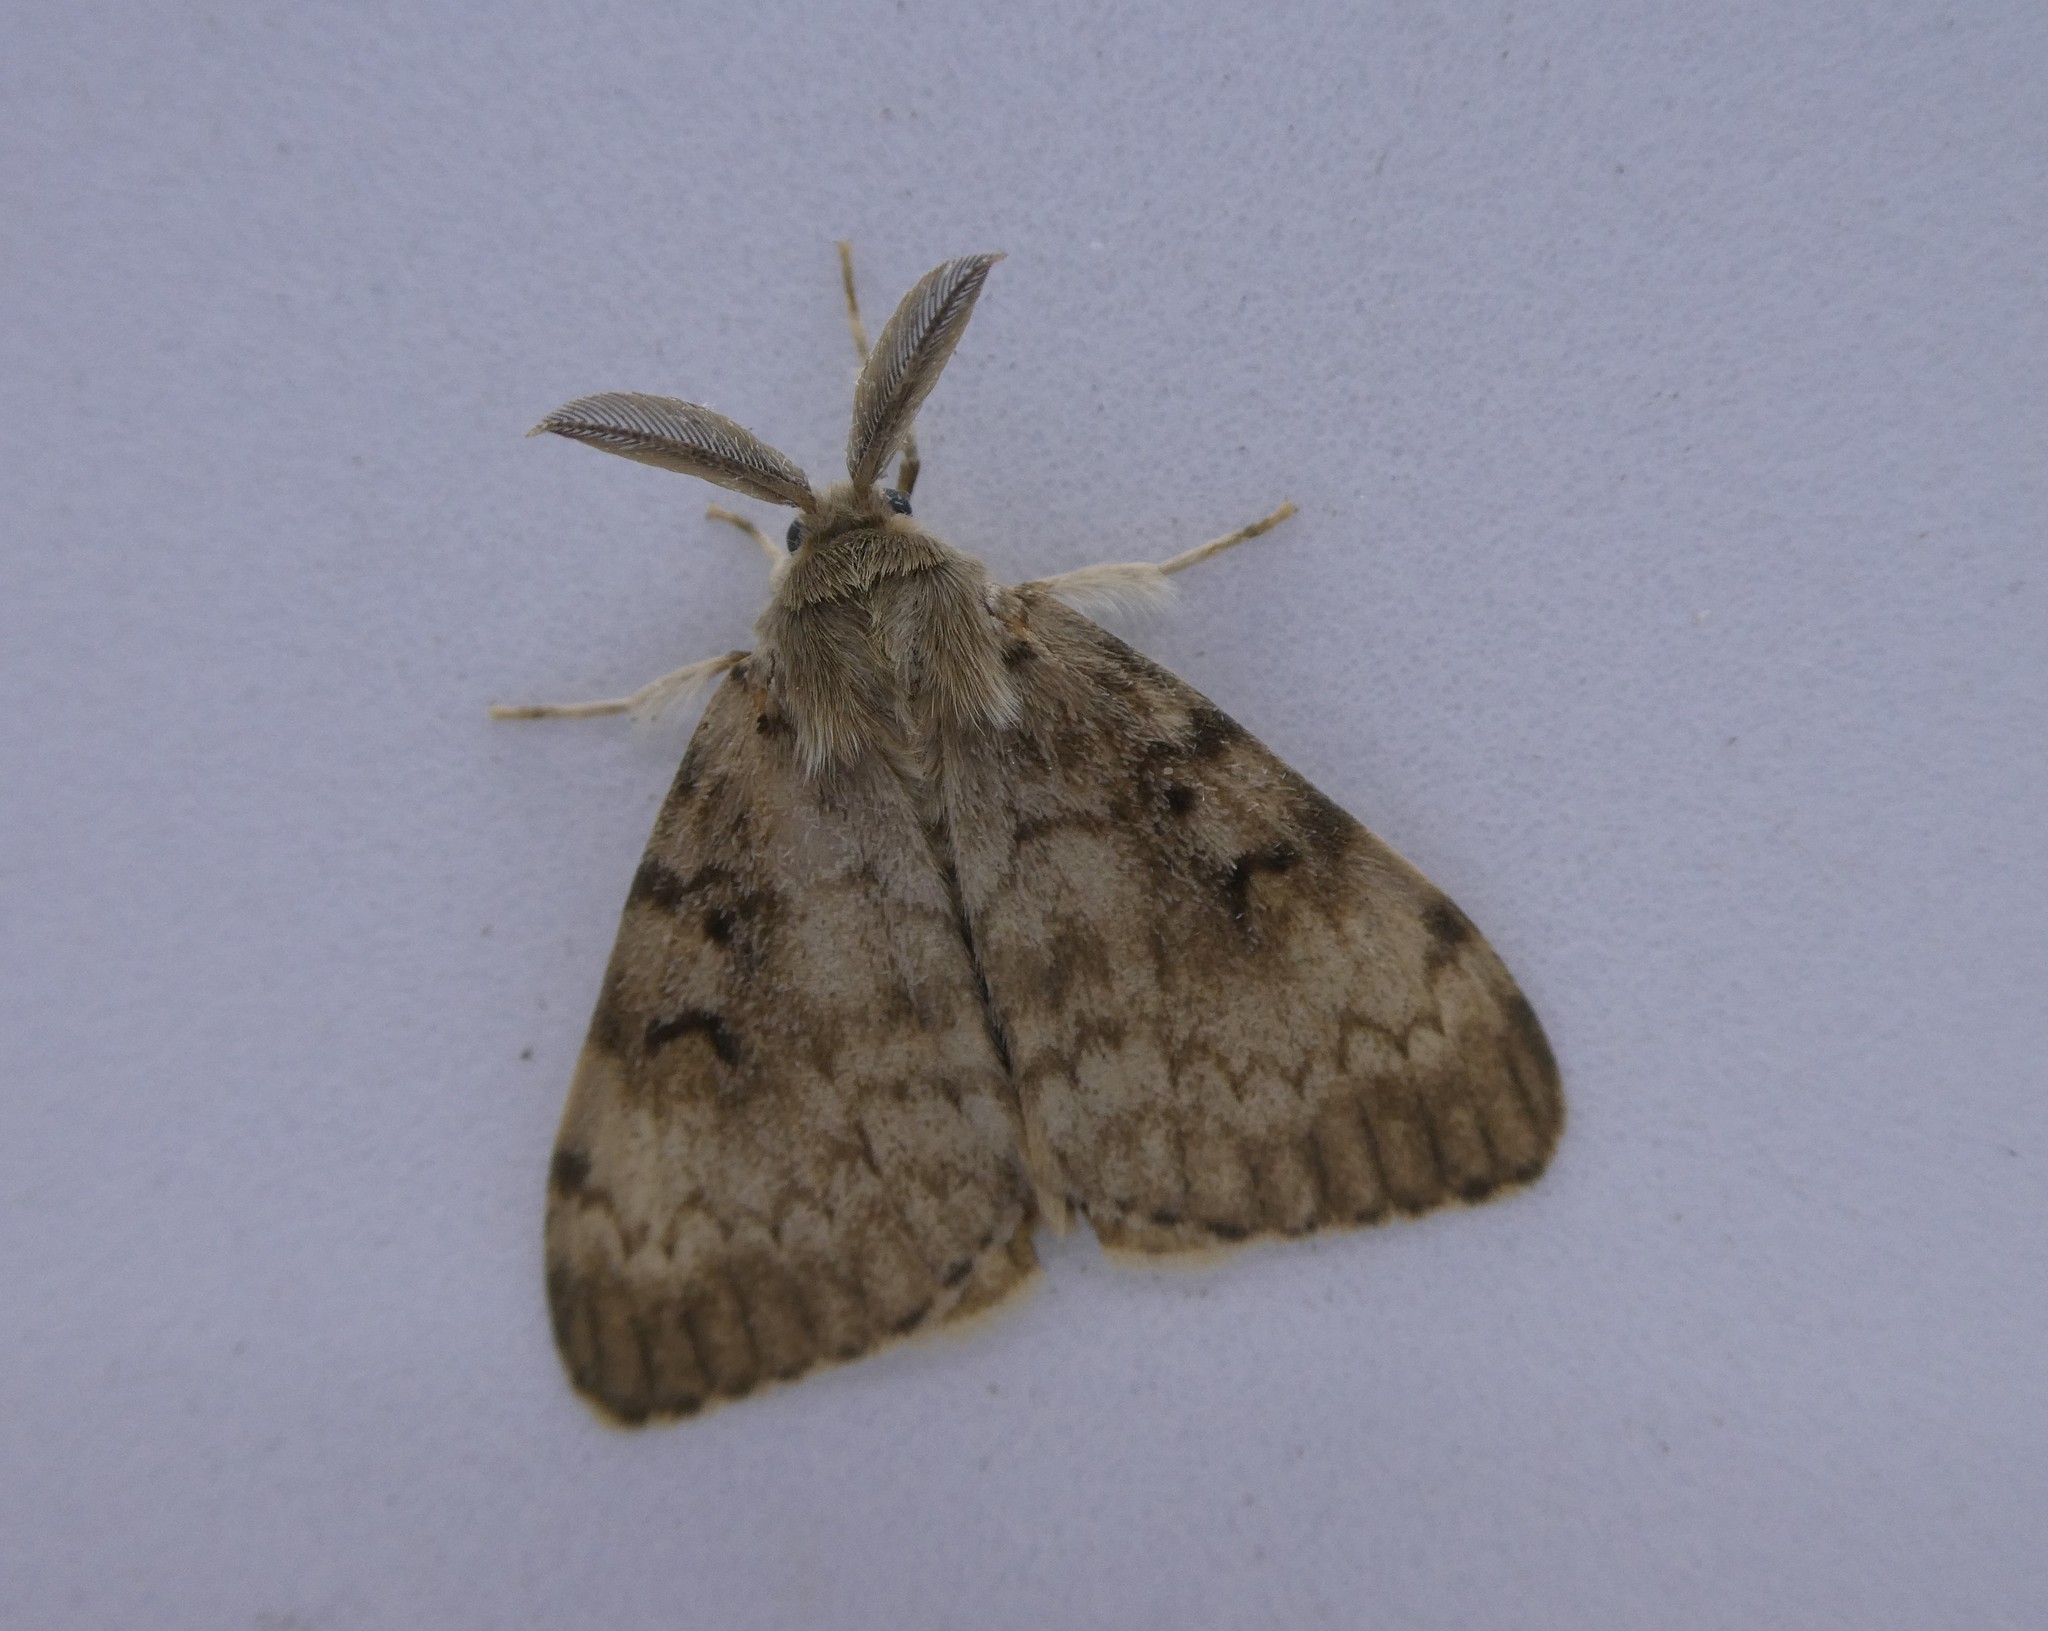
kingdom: Animalia
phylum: Arthropoda
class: Insecta
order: Lepidoptera
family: Erebidae
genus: Lymantria
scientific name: Lymantria dispar
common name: Gypsy moth
